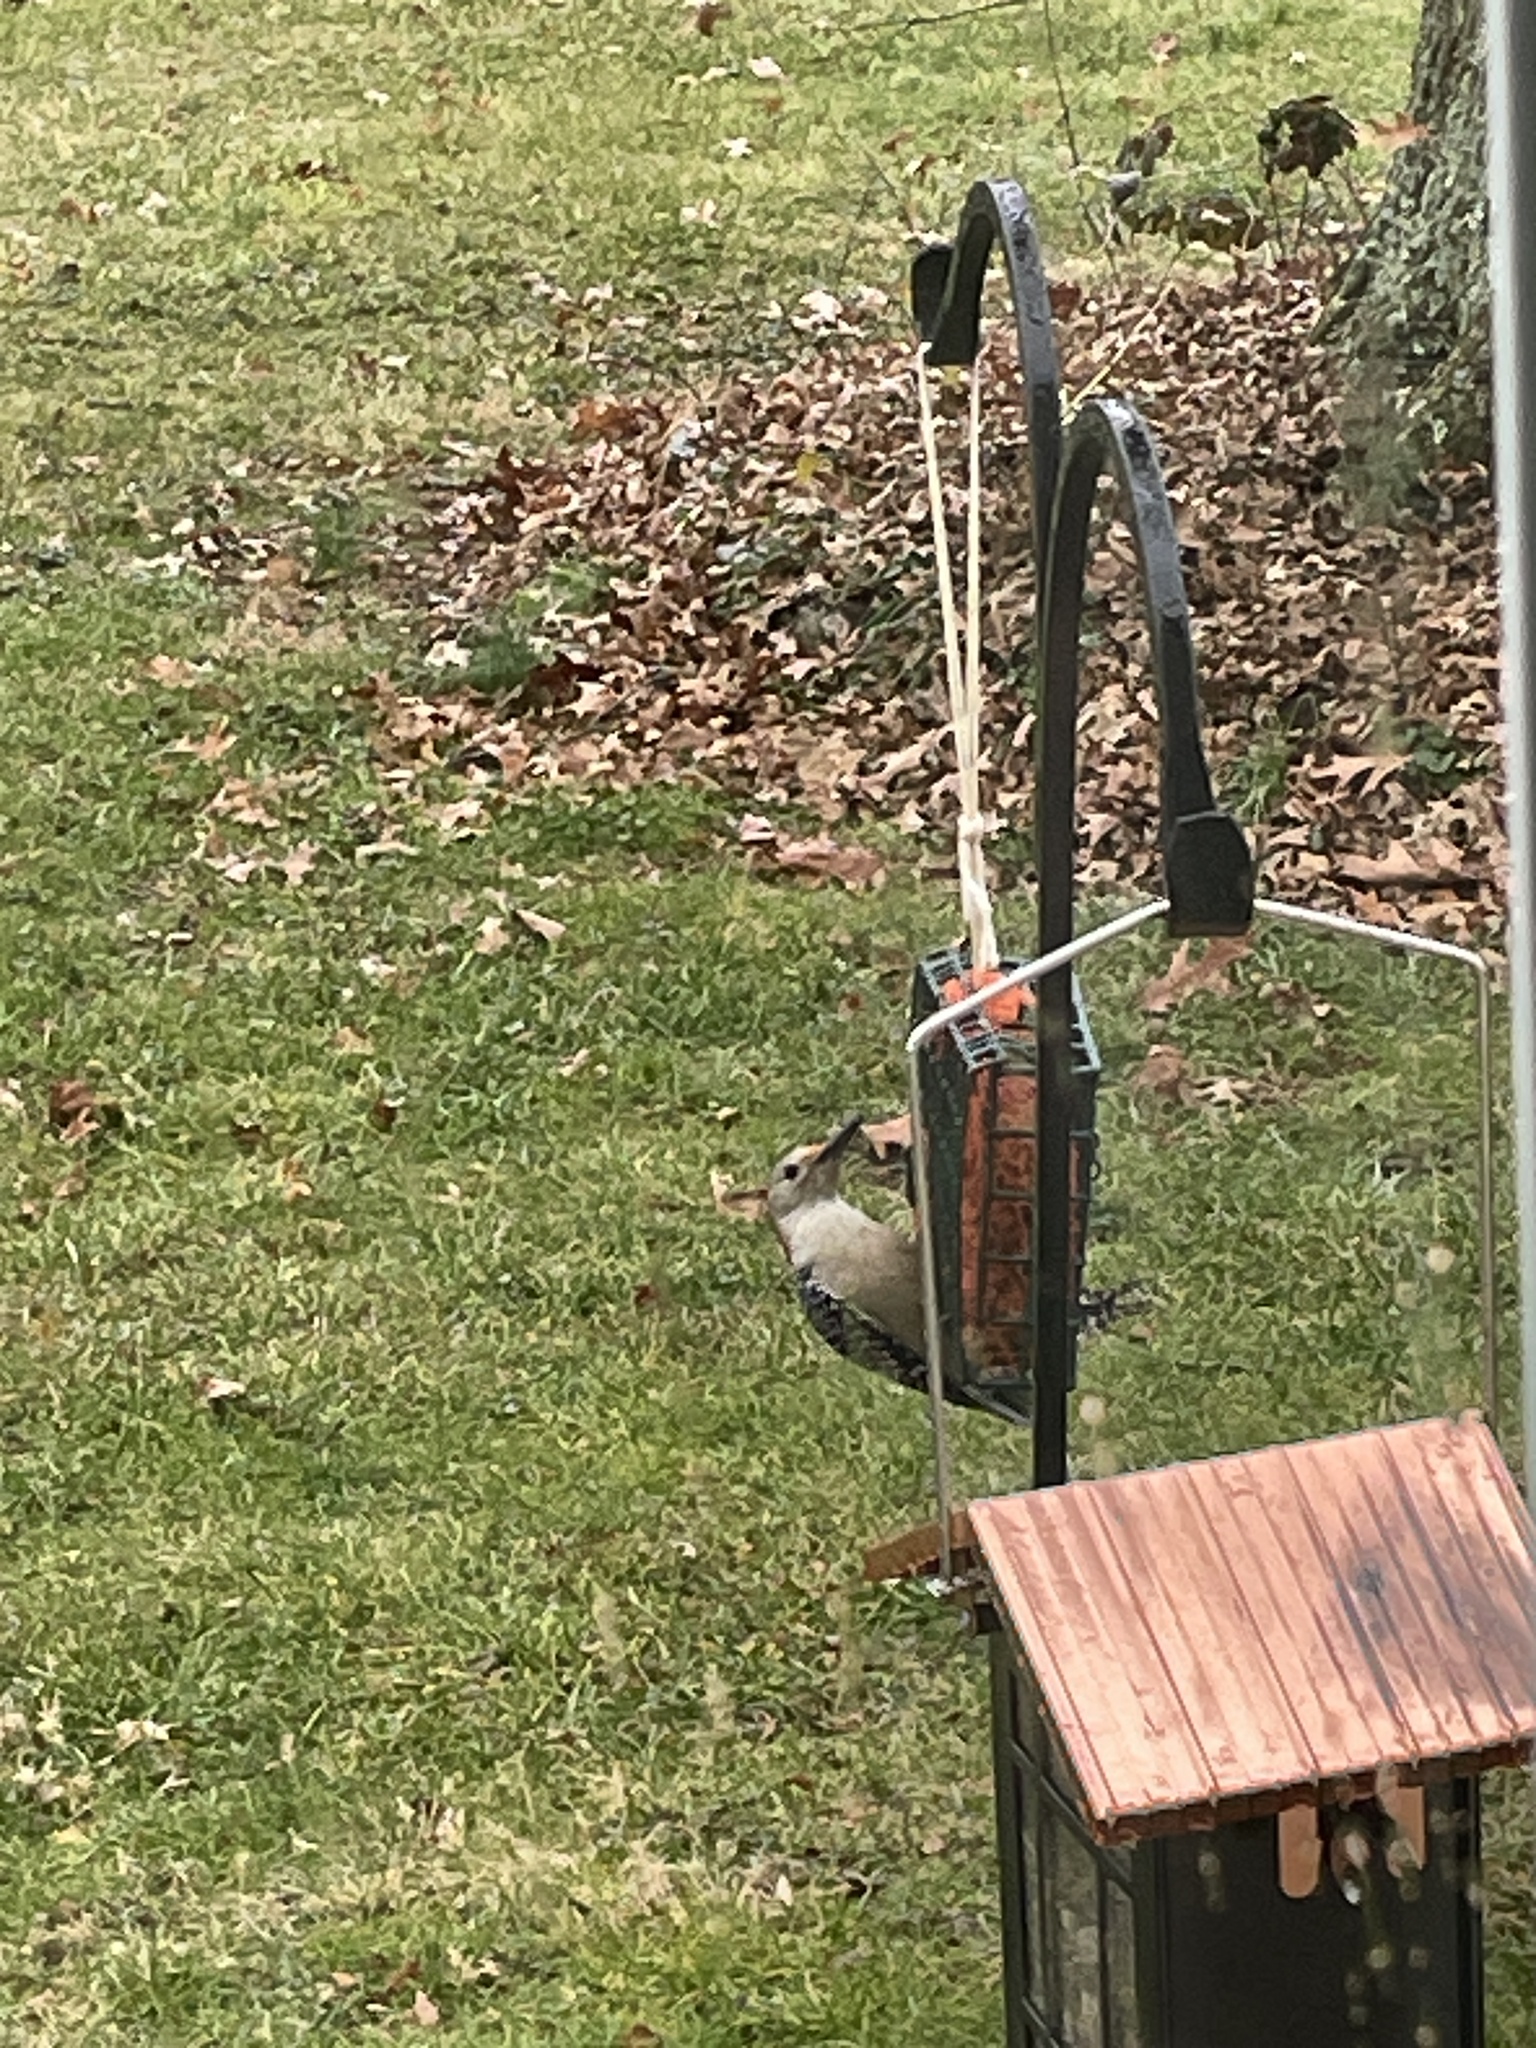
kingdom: Animalia
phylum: Chordata
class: Aves
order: Piciformes
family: Picidae
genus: Melanerpes
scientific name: Melanerpes carolinus
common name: Red-bellied woodpecker
